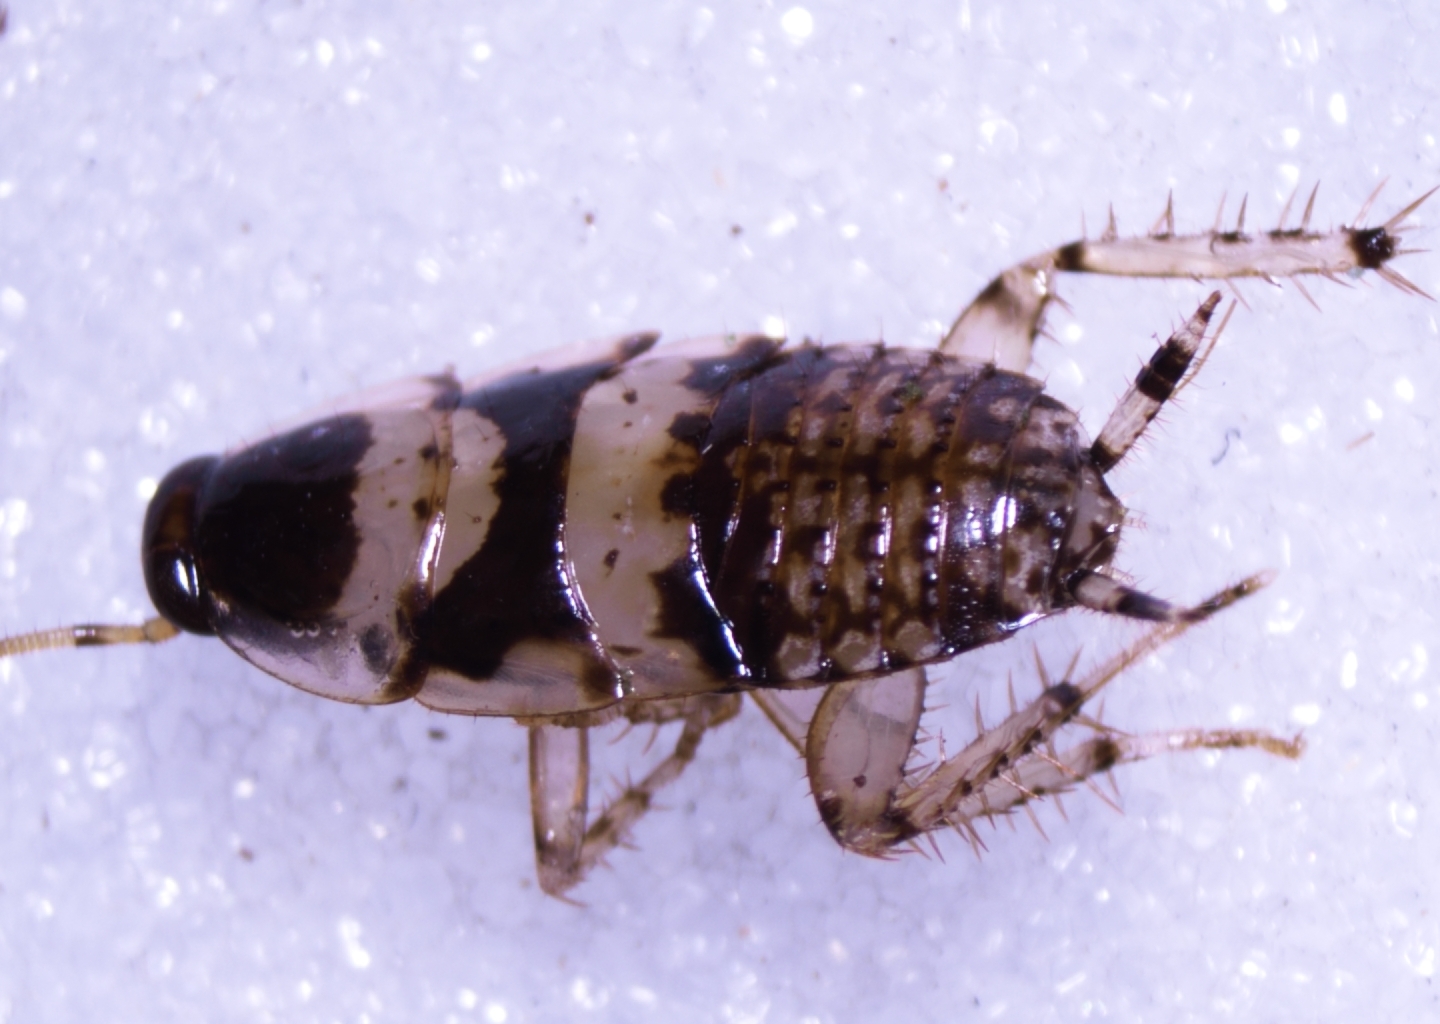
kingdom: Animalia
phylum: Arthropoda
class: Insecta
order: Blattodea
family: Ectobiidae
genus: Balta
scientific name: Balta notulata
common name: Cockroach
